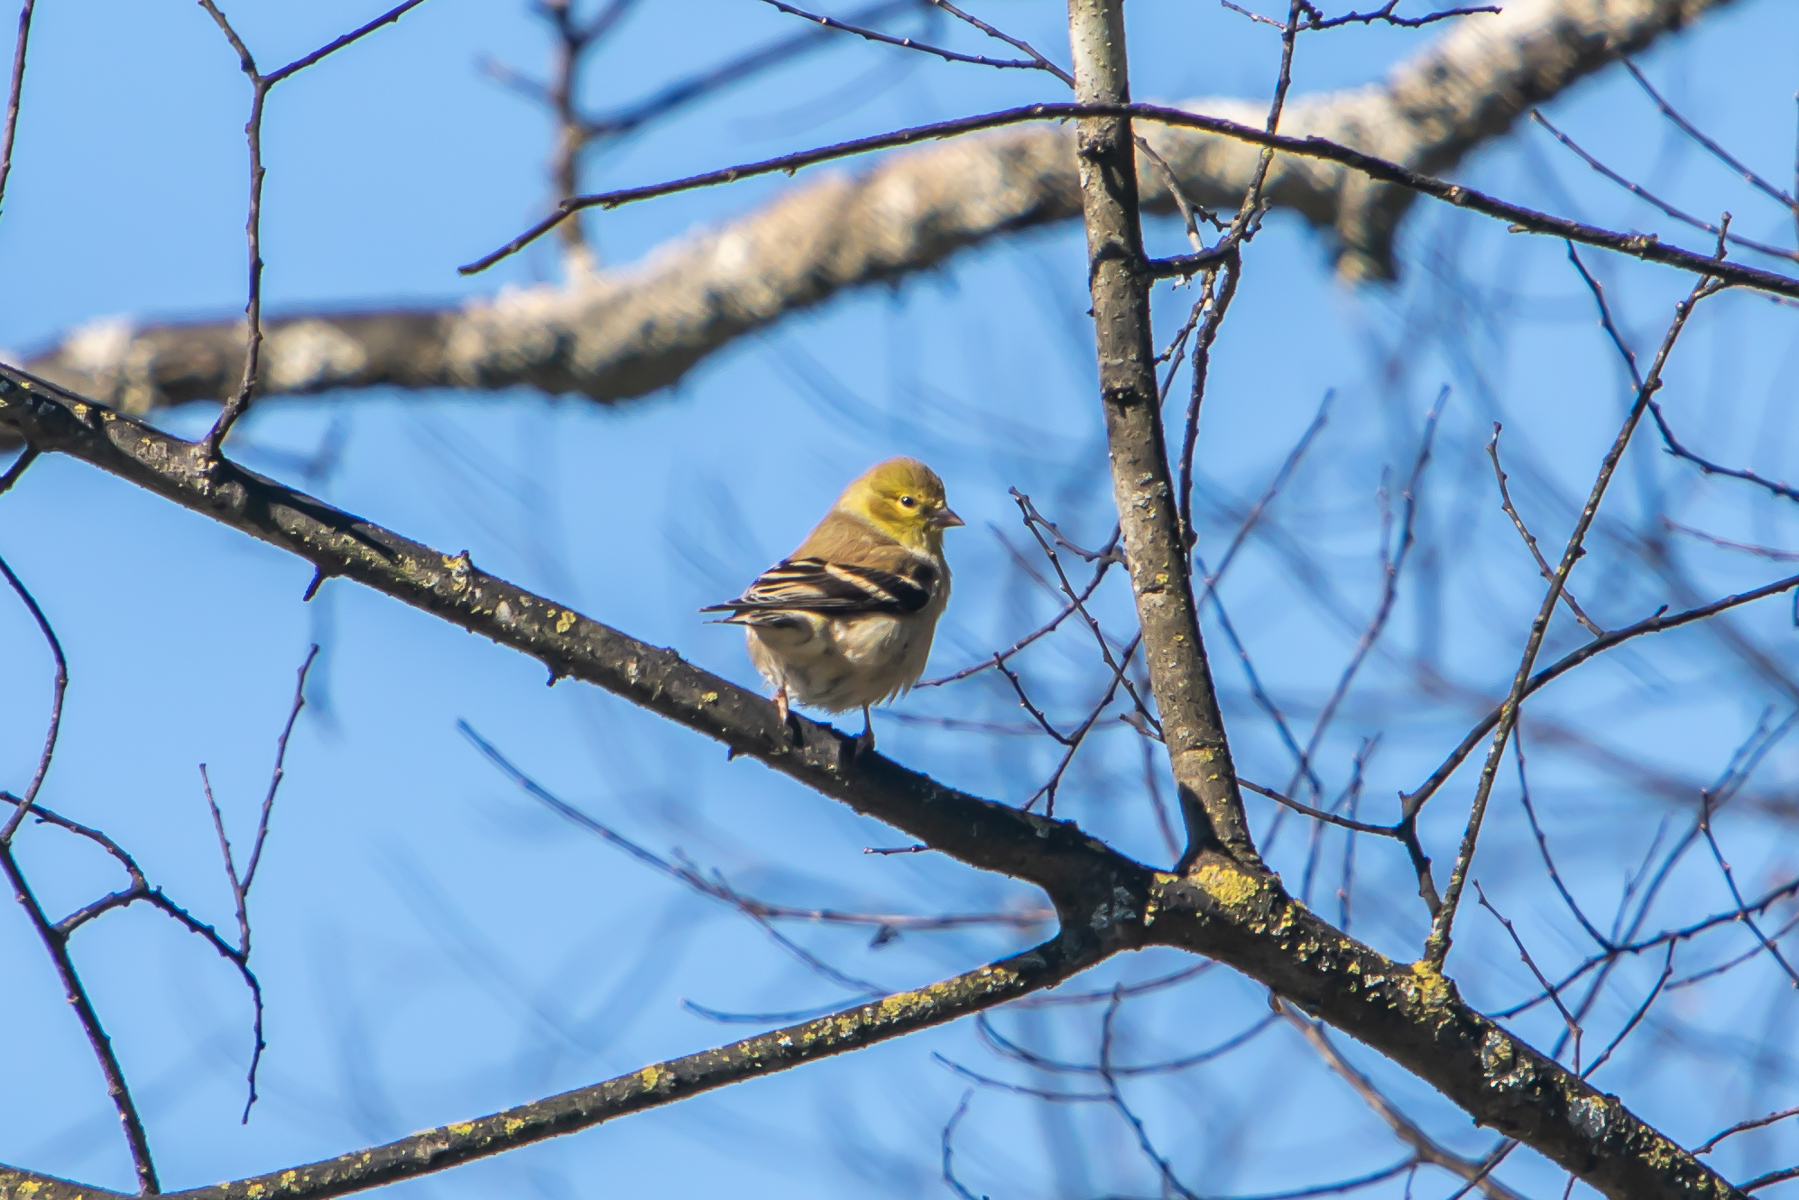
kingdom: Animalia
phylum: Chordata
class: Aves
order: Passeriformes
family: Fringillidae
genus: Spinus
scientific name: Spinus tristis
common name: American goldfinch
